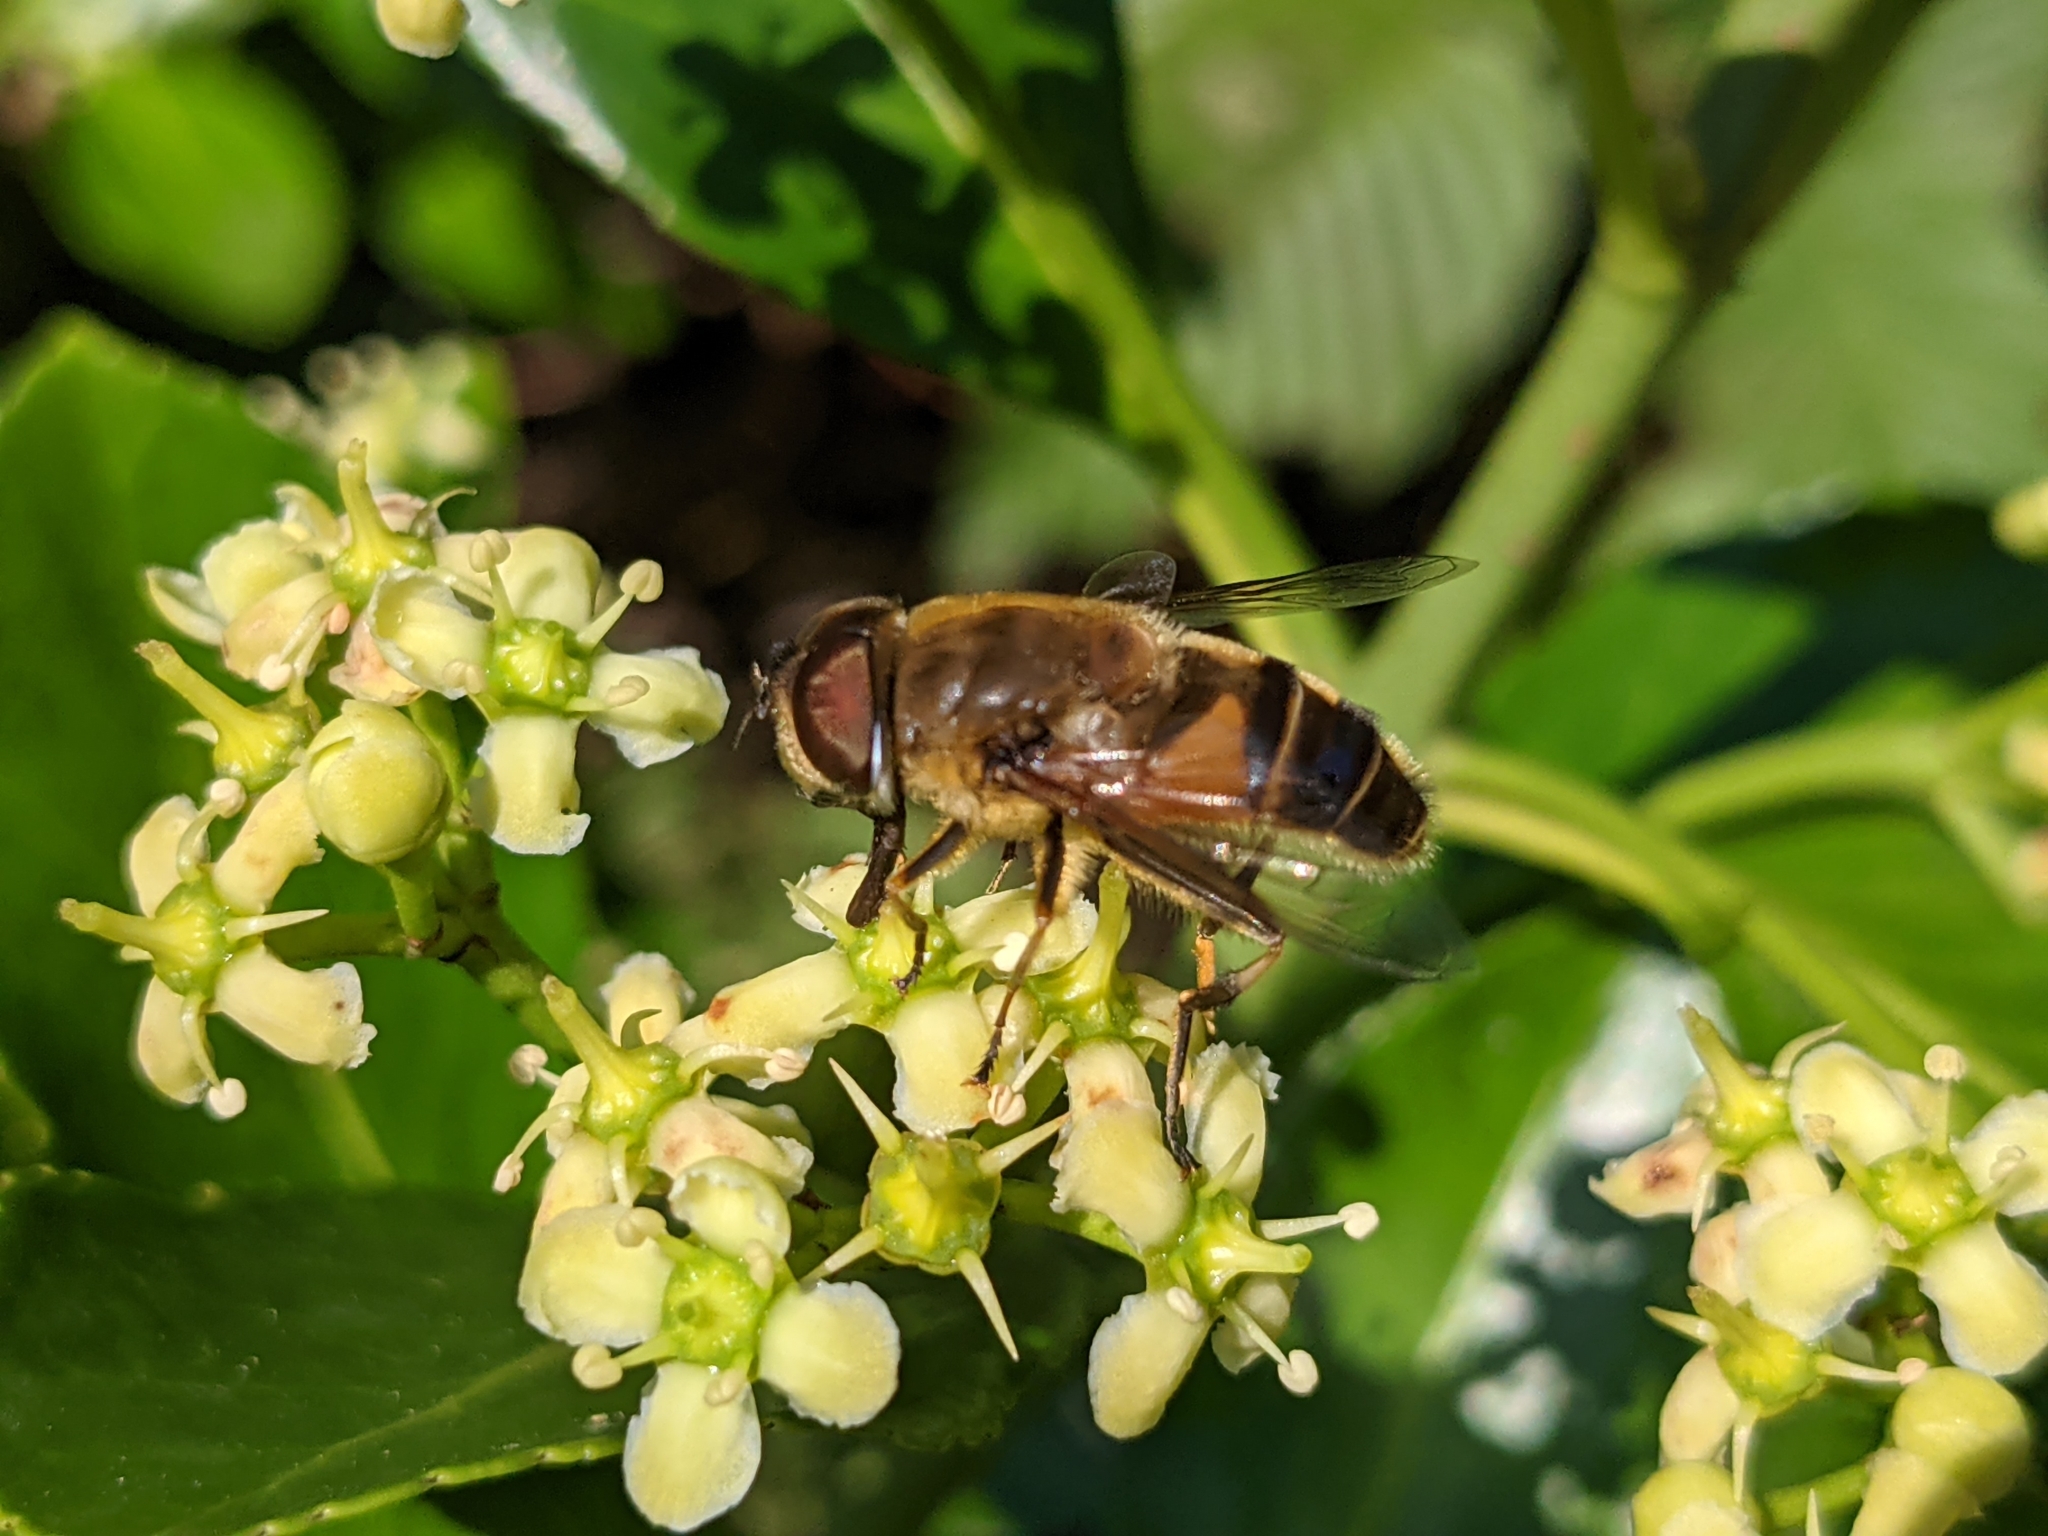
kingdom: Animalia
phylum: Arthropoda
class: Insecta
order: Diptera
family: Syrphidae
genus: Eristalis
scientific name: Eristalis pertinax
